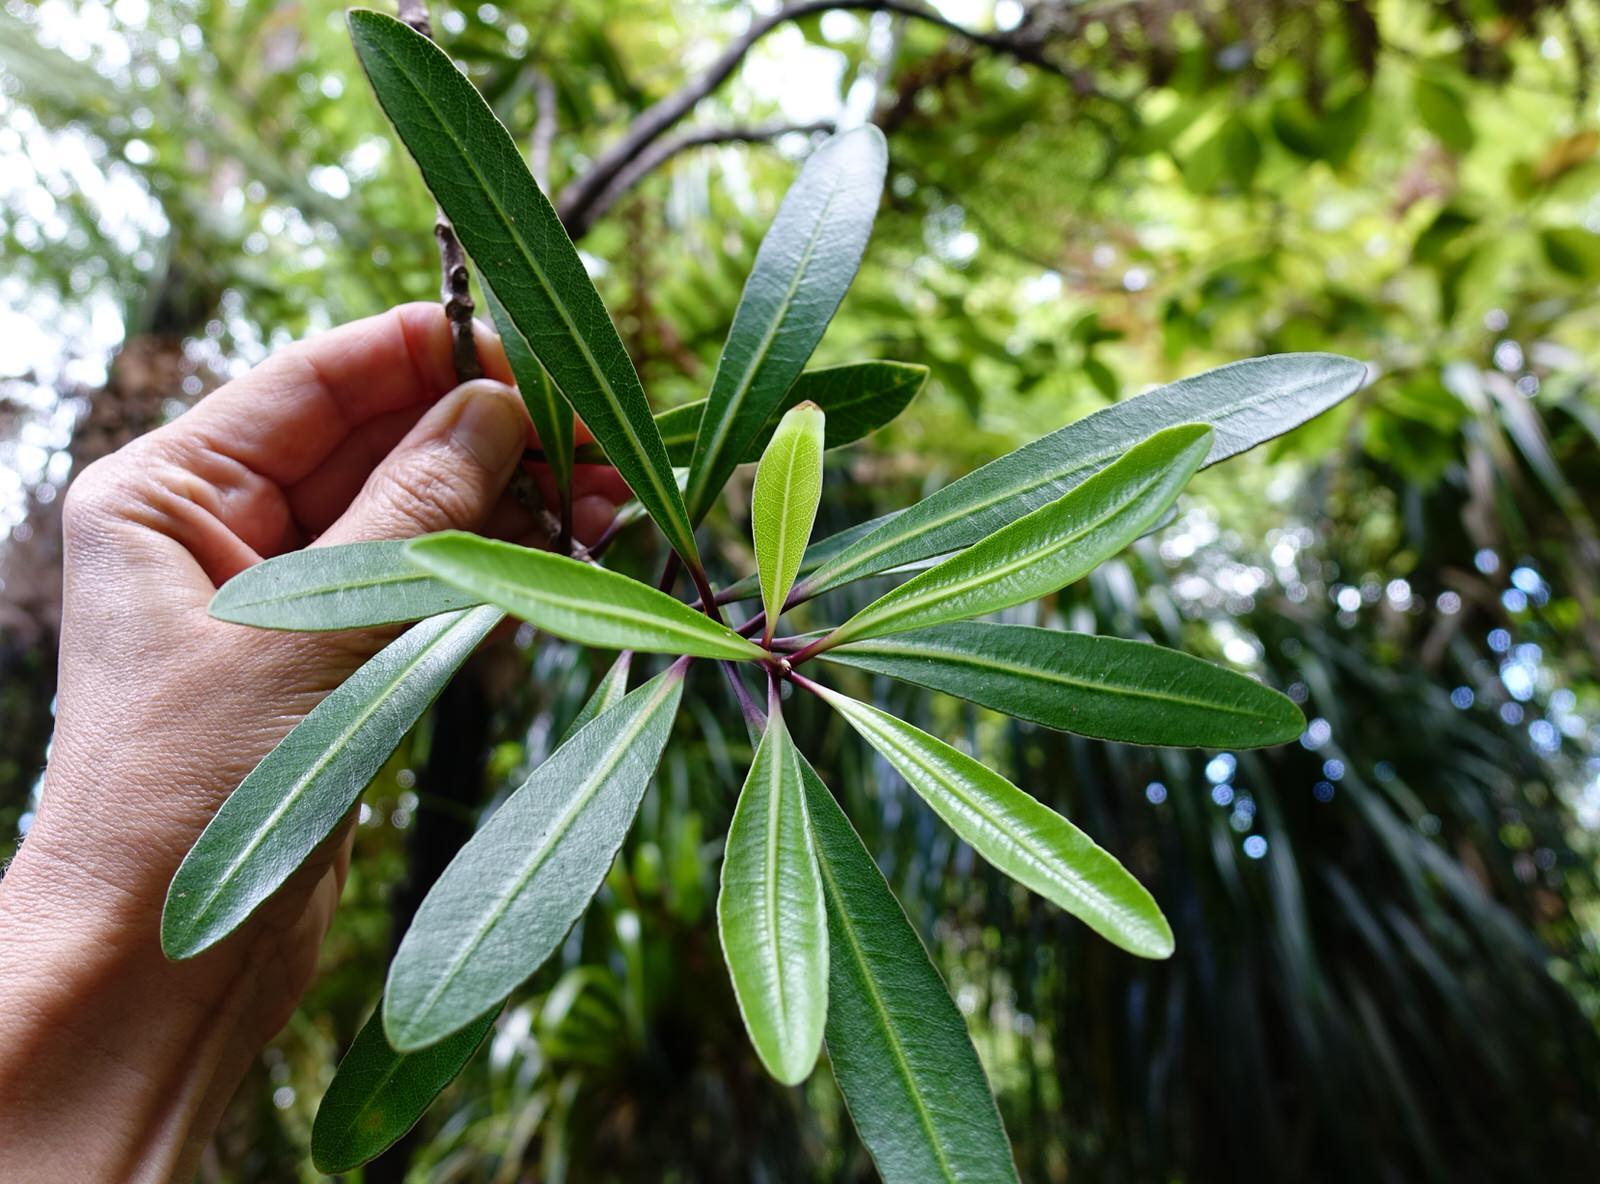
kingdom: Plantae
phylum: Tracheophyta
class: Magnoliopsida
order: Apiales
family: Pittosporaceae
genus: Pittosporum
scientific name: Pittosporum kirkii
